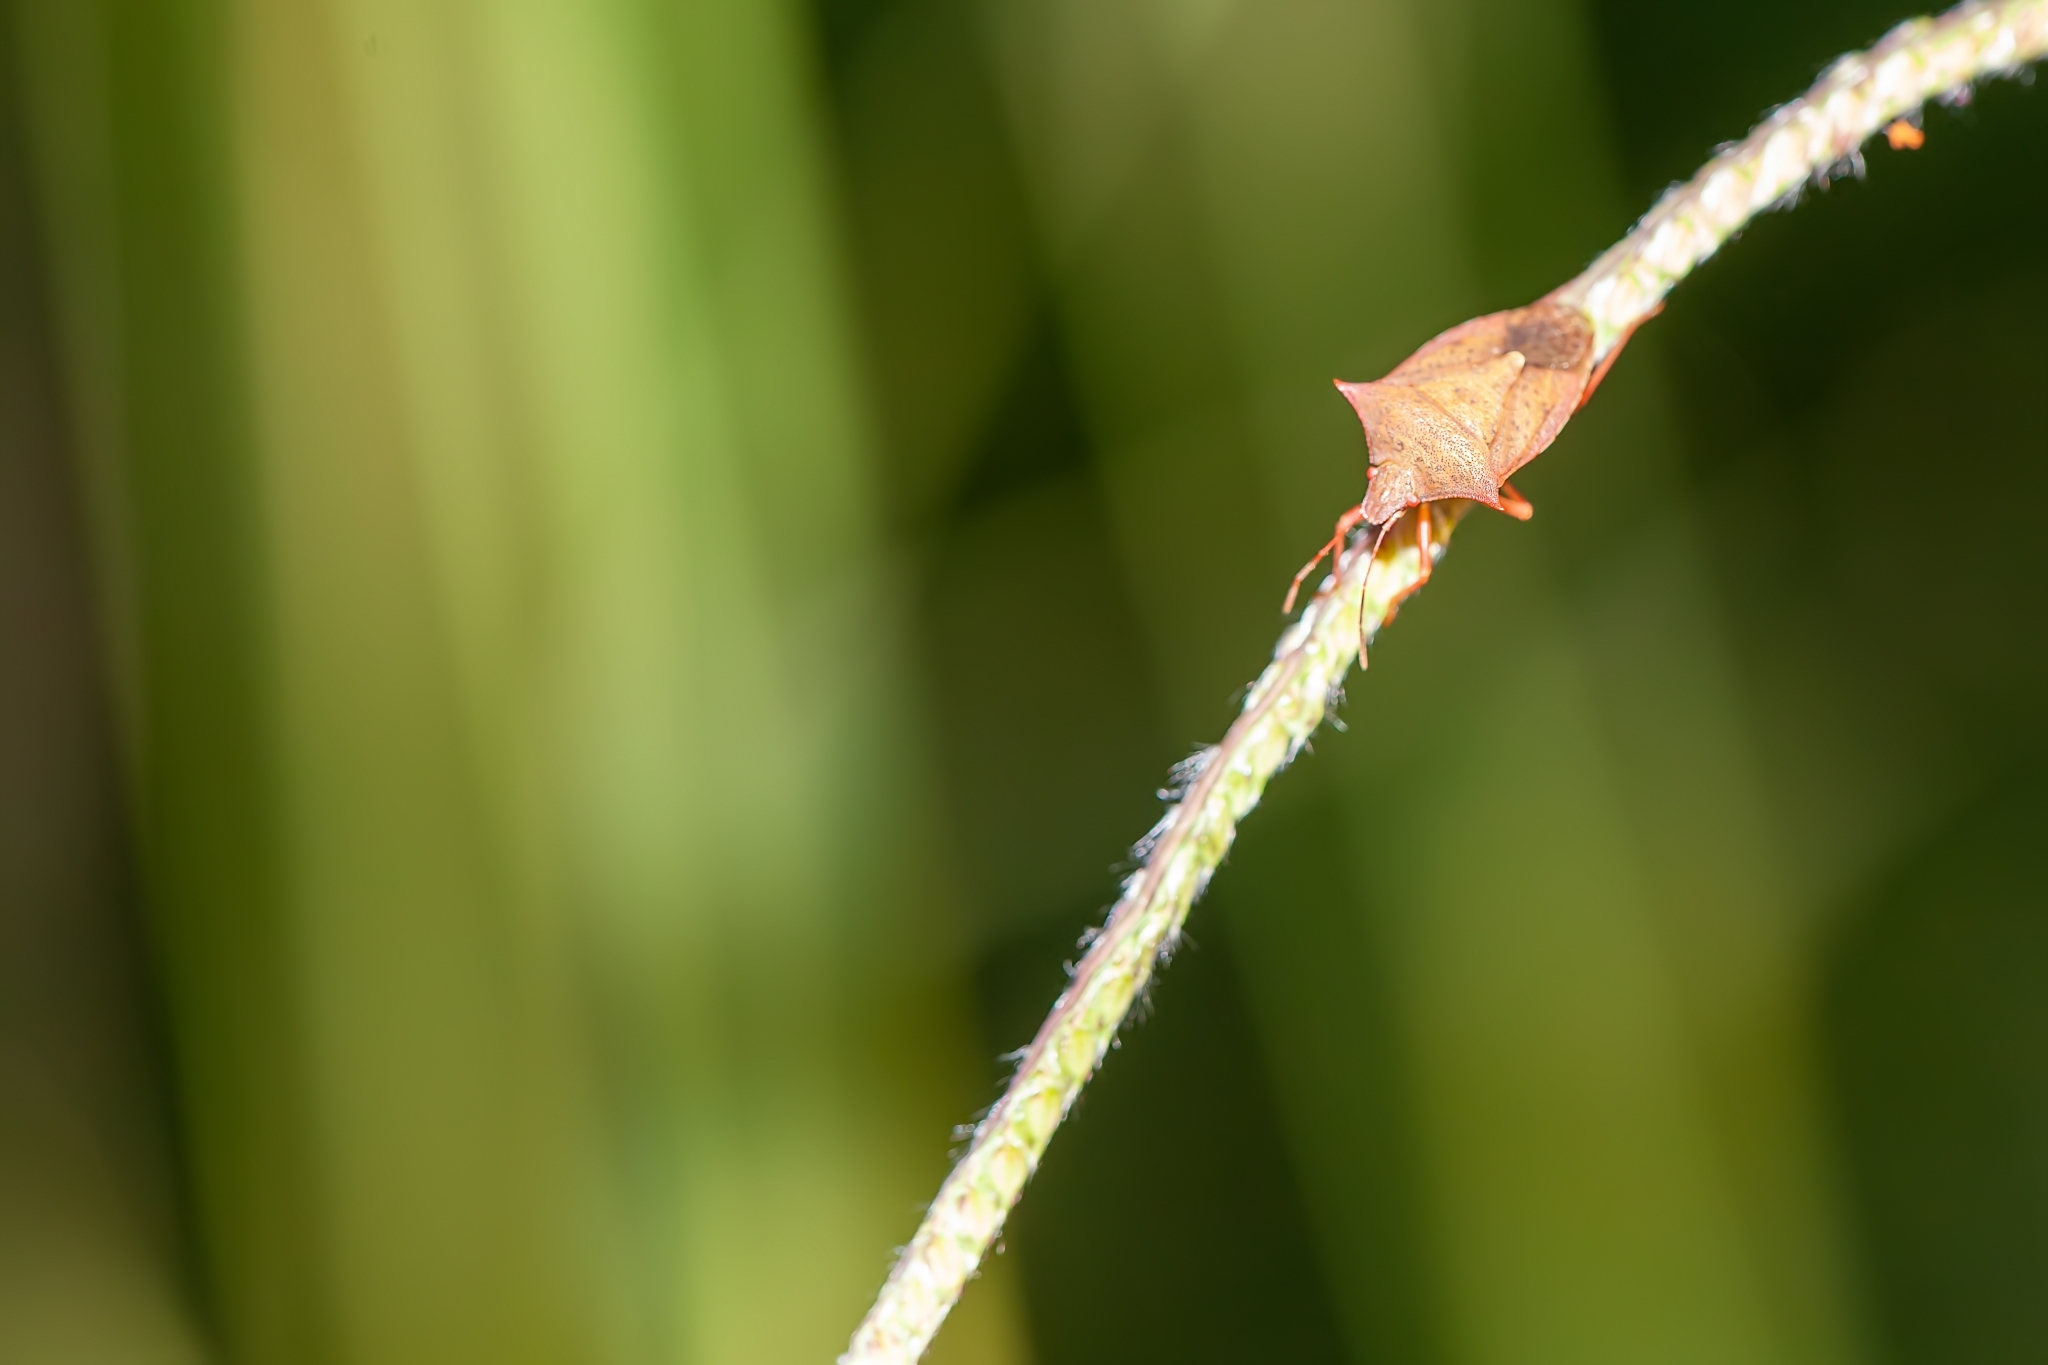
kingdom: Animalia
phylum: Arthropoda
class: Insecta
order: Hemiptera
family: Pentatomidae
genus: Euschistus
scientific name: Euschistus ictericus
